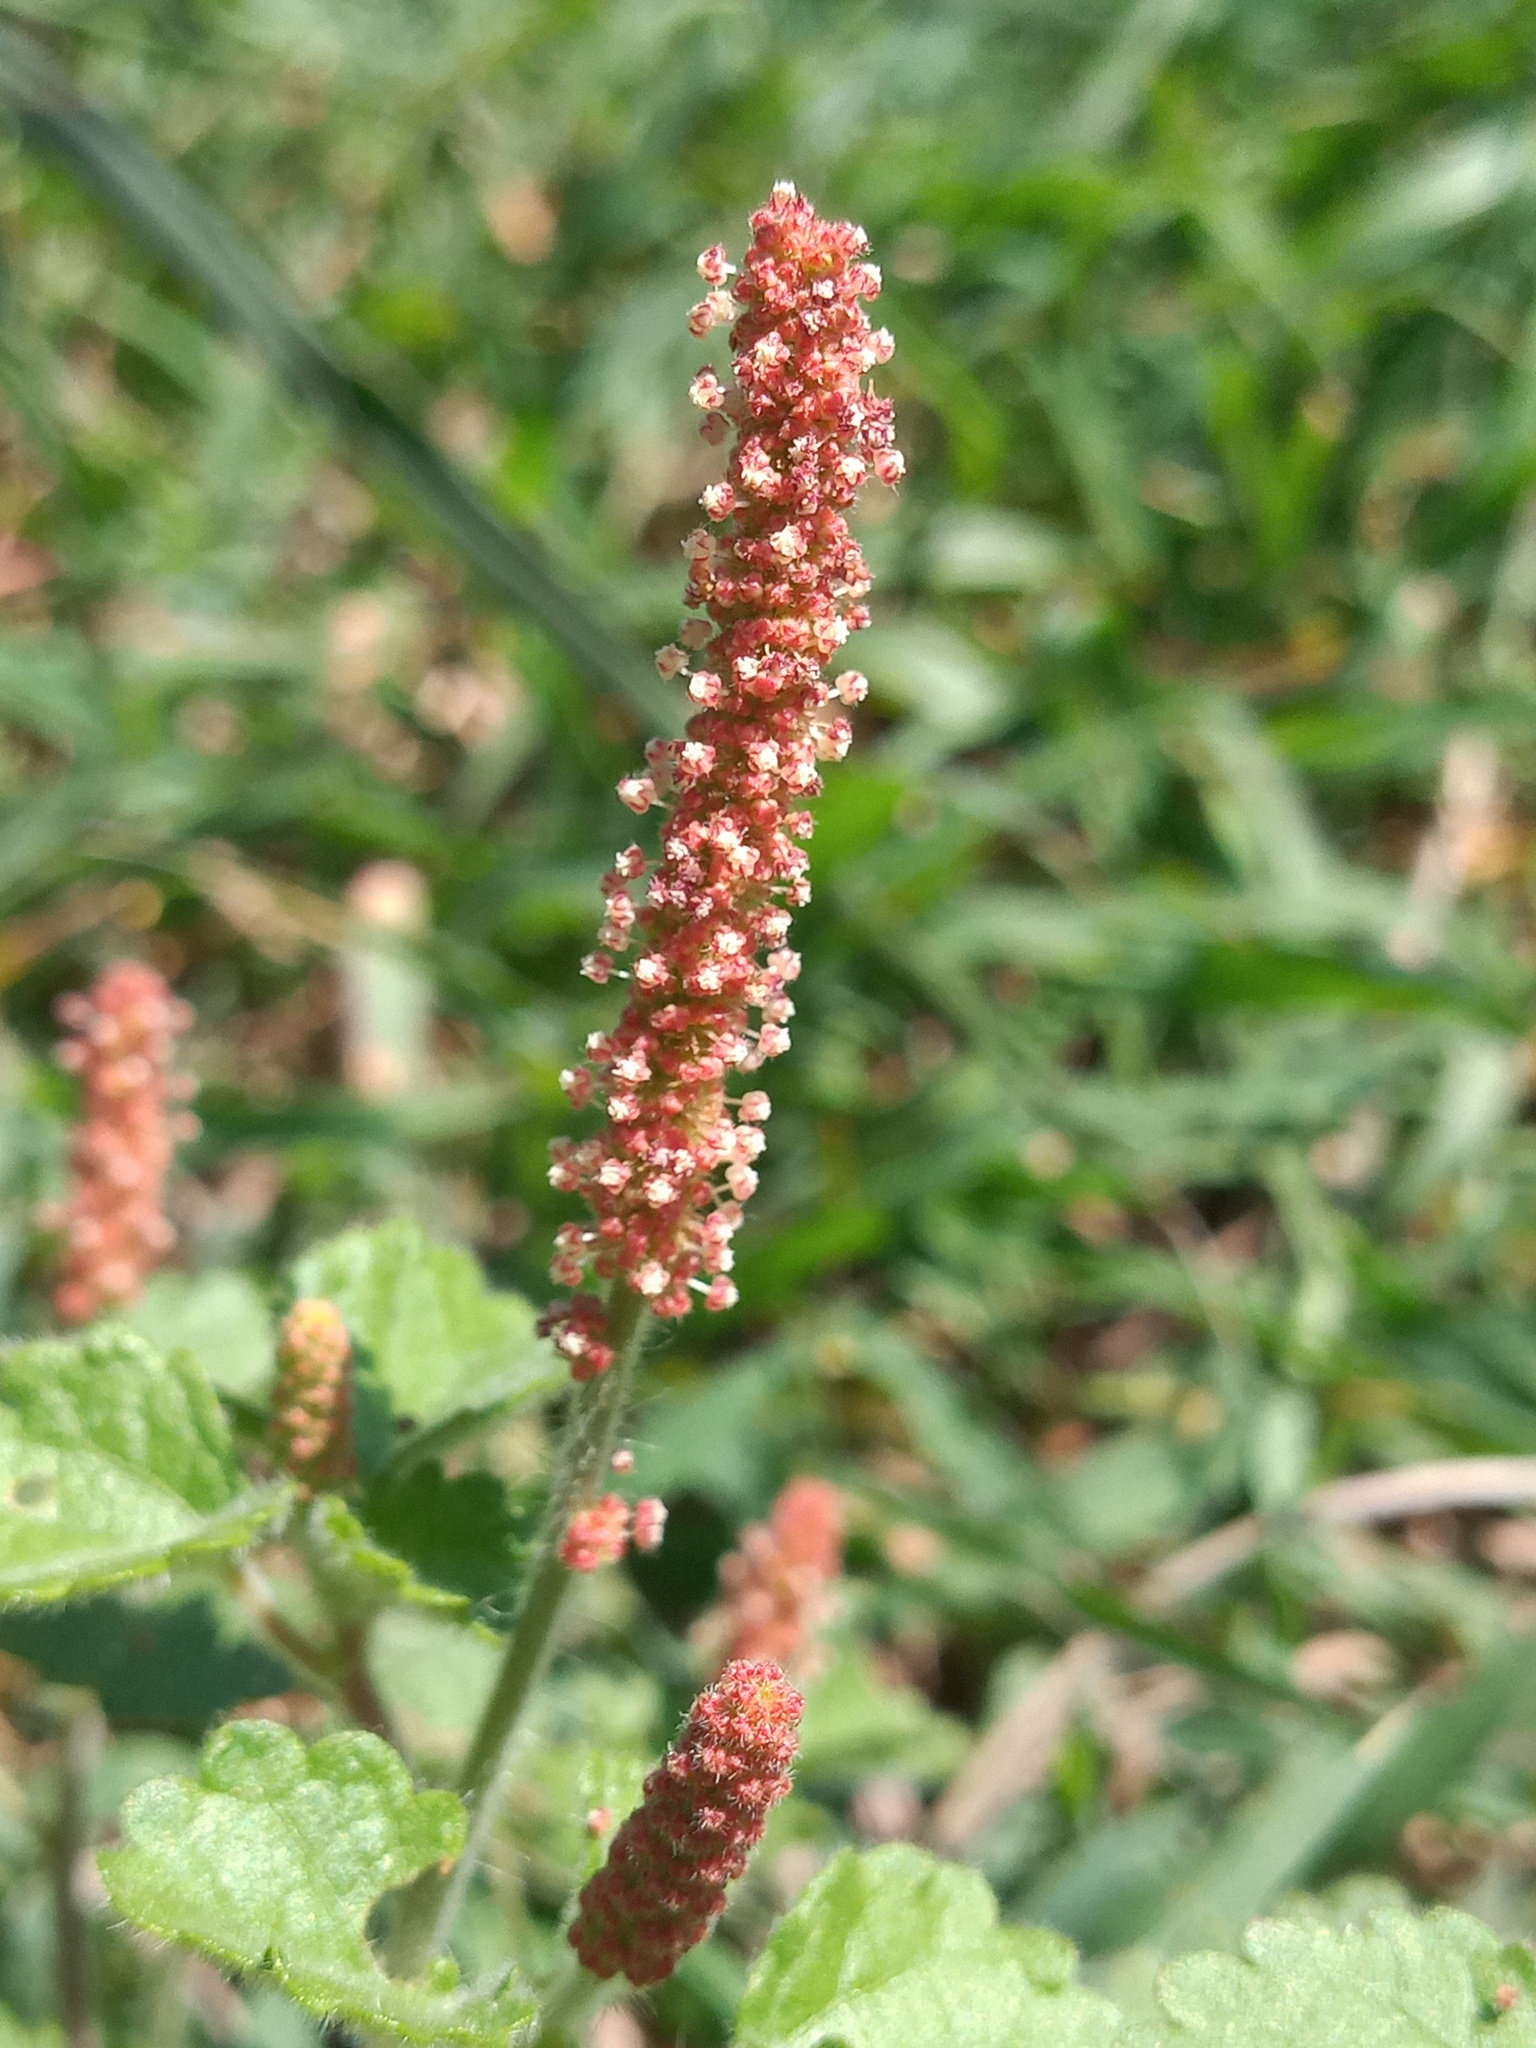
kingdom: Plantae
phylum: Tracheophyta
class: Magnoliopsida
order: Malpighiales
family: Euphorbiaceae
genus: Acalypha
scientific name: Acalypha monostachya
